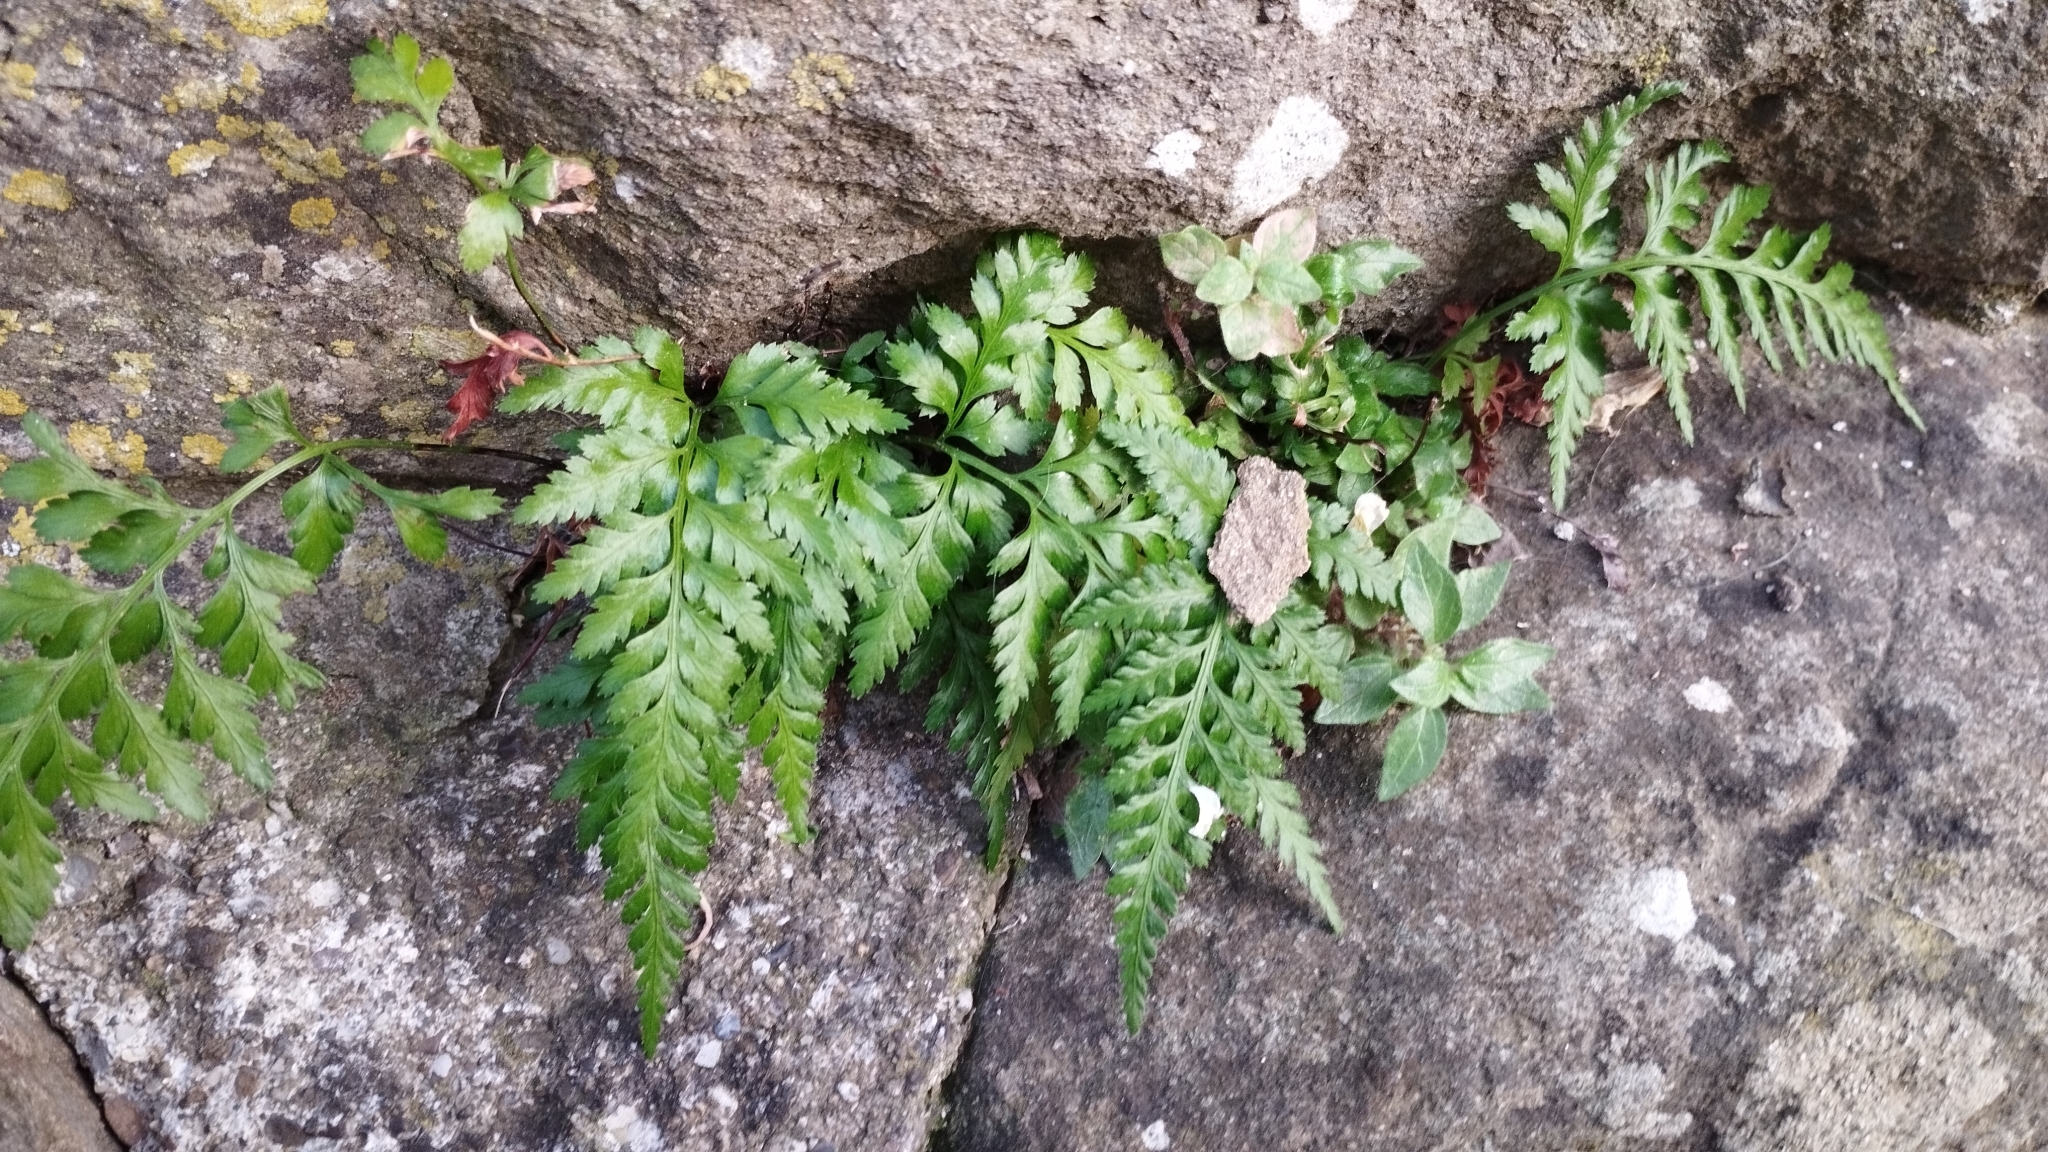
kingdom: Plantae
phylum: Tracheophyta
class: Polypodiopsida
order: Polypodiales
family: Aspleniaceae
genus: Asplenium
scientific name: Asplenium onopteris
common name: Irish spleenwort
